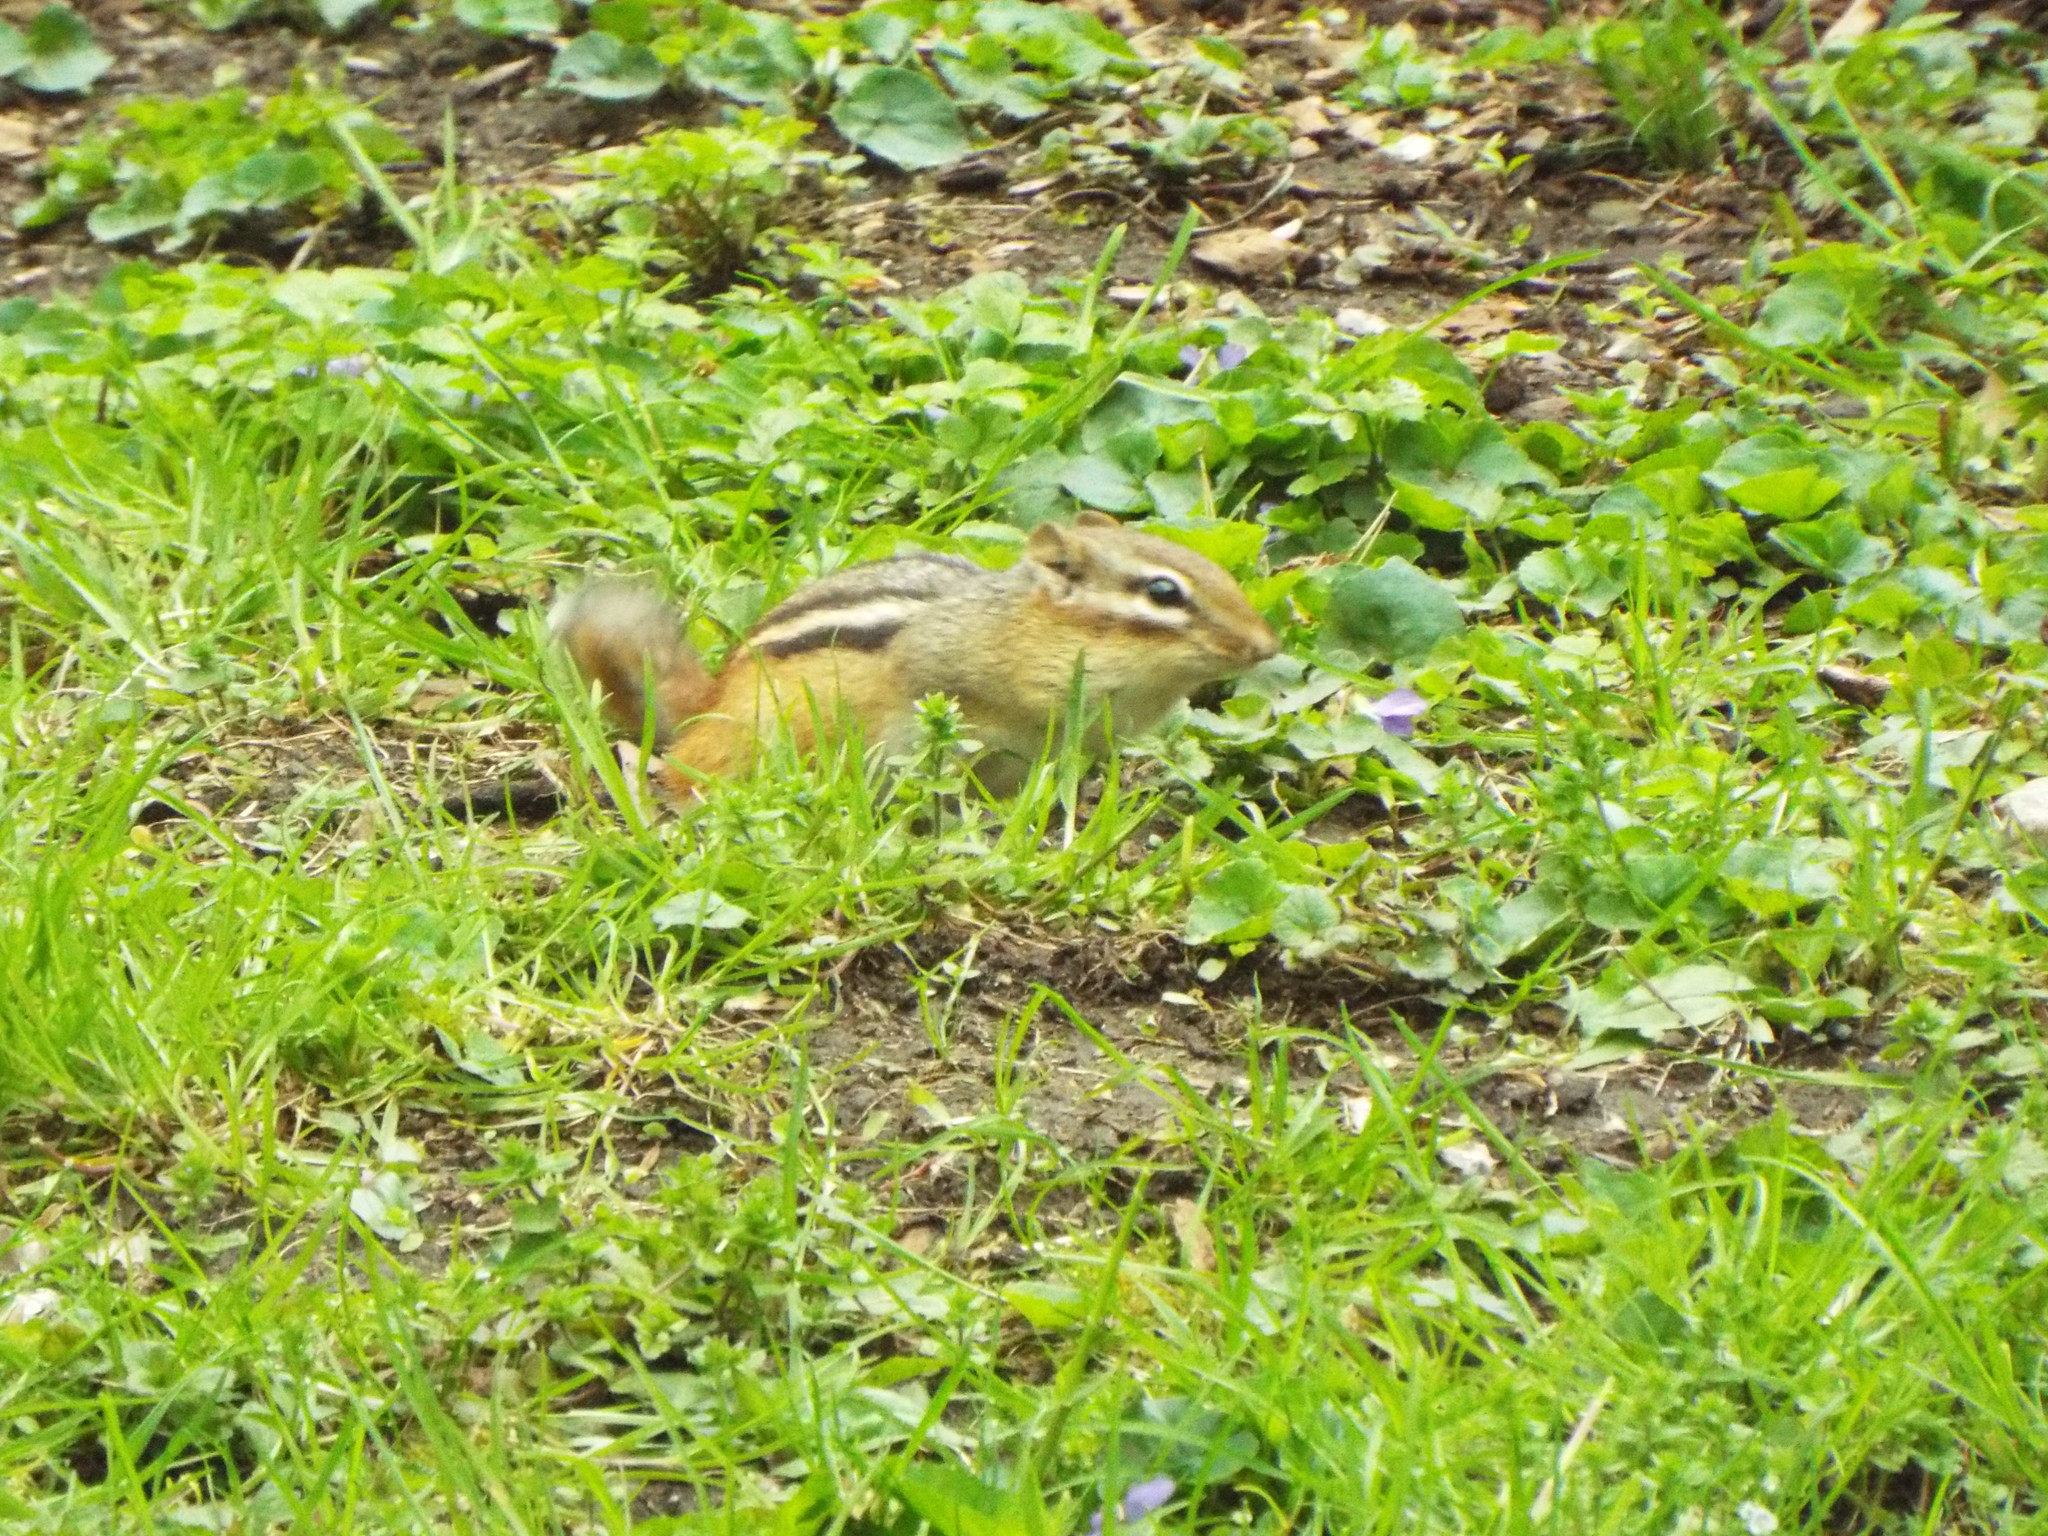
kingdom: Animalia
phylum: Chordata
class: Mammalia
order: Rodentia
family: Sciuridae
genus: Tamias
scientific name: Tamias striatus
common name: Eastern chipmunk
